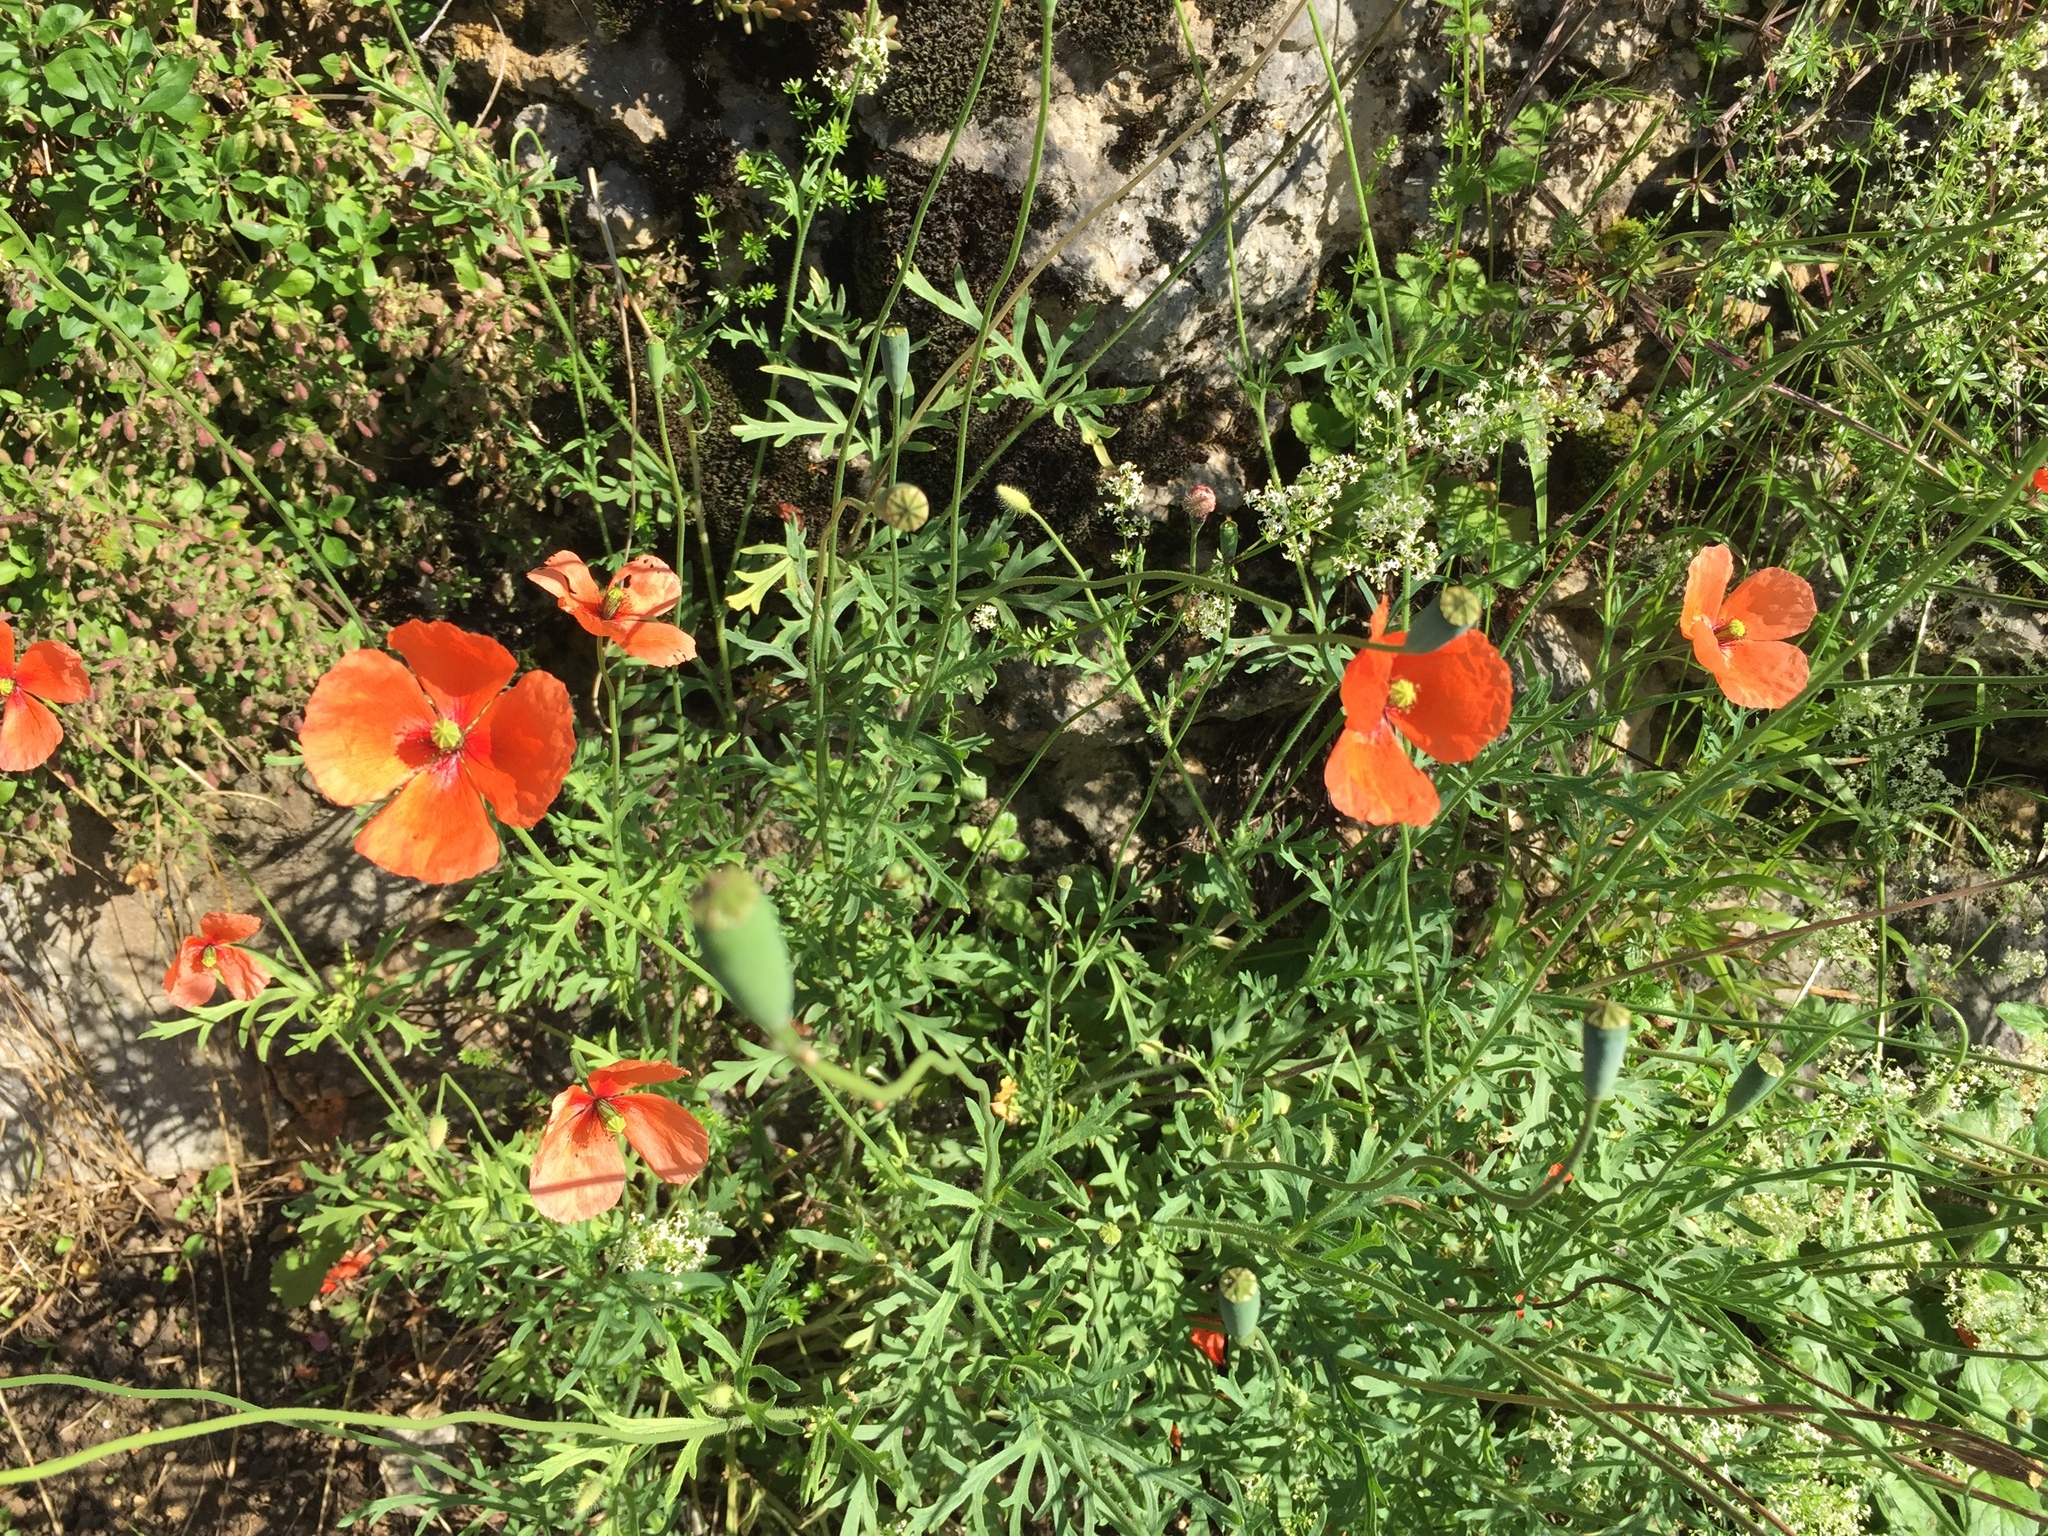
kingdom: Plantae
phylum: Tracheophyta
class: Magnoliopsida
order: Ranunculales
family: Papaveraceae
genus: Papaver
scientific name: Papaver dubium
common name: Long-headed poppy
